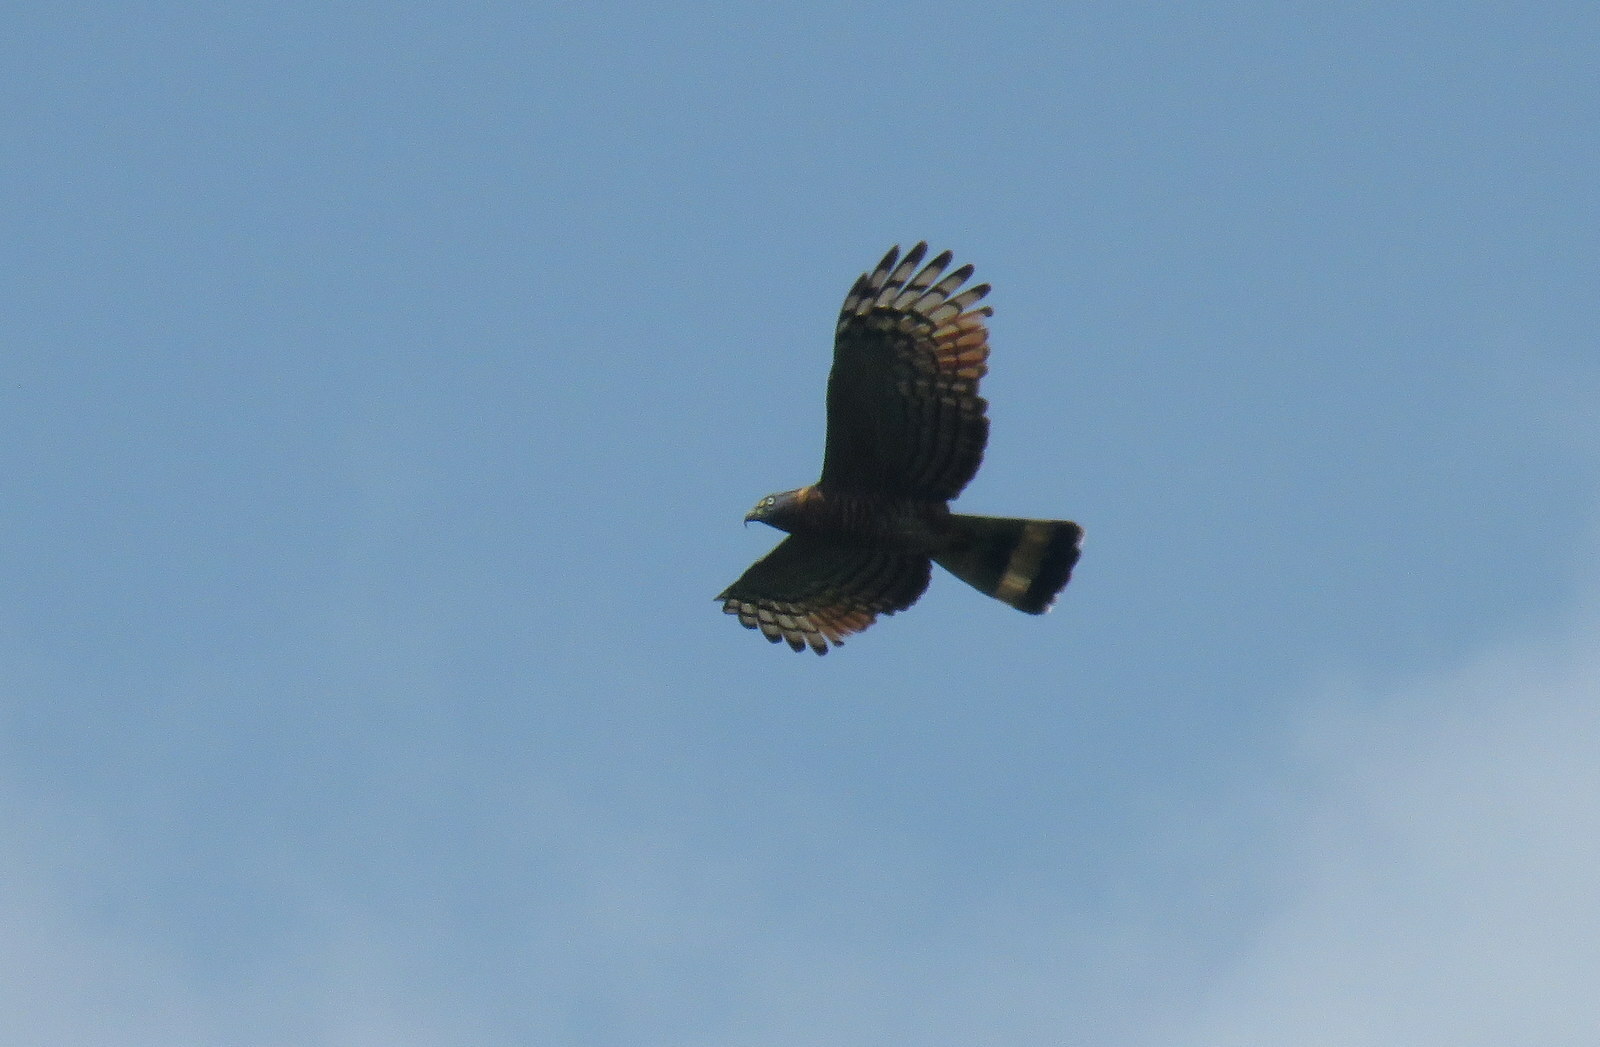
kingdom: Animalia
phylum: Chordata
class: Aves
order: Accipitriformes
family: Accipitridae
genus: Chondrohierax
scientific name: Chondrohierax uncinatus
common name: Hook-billed kite
